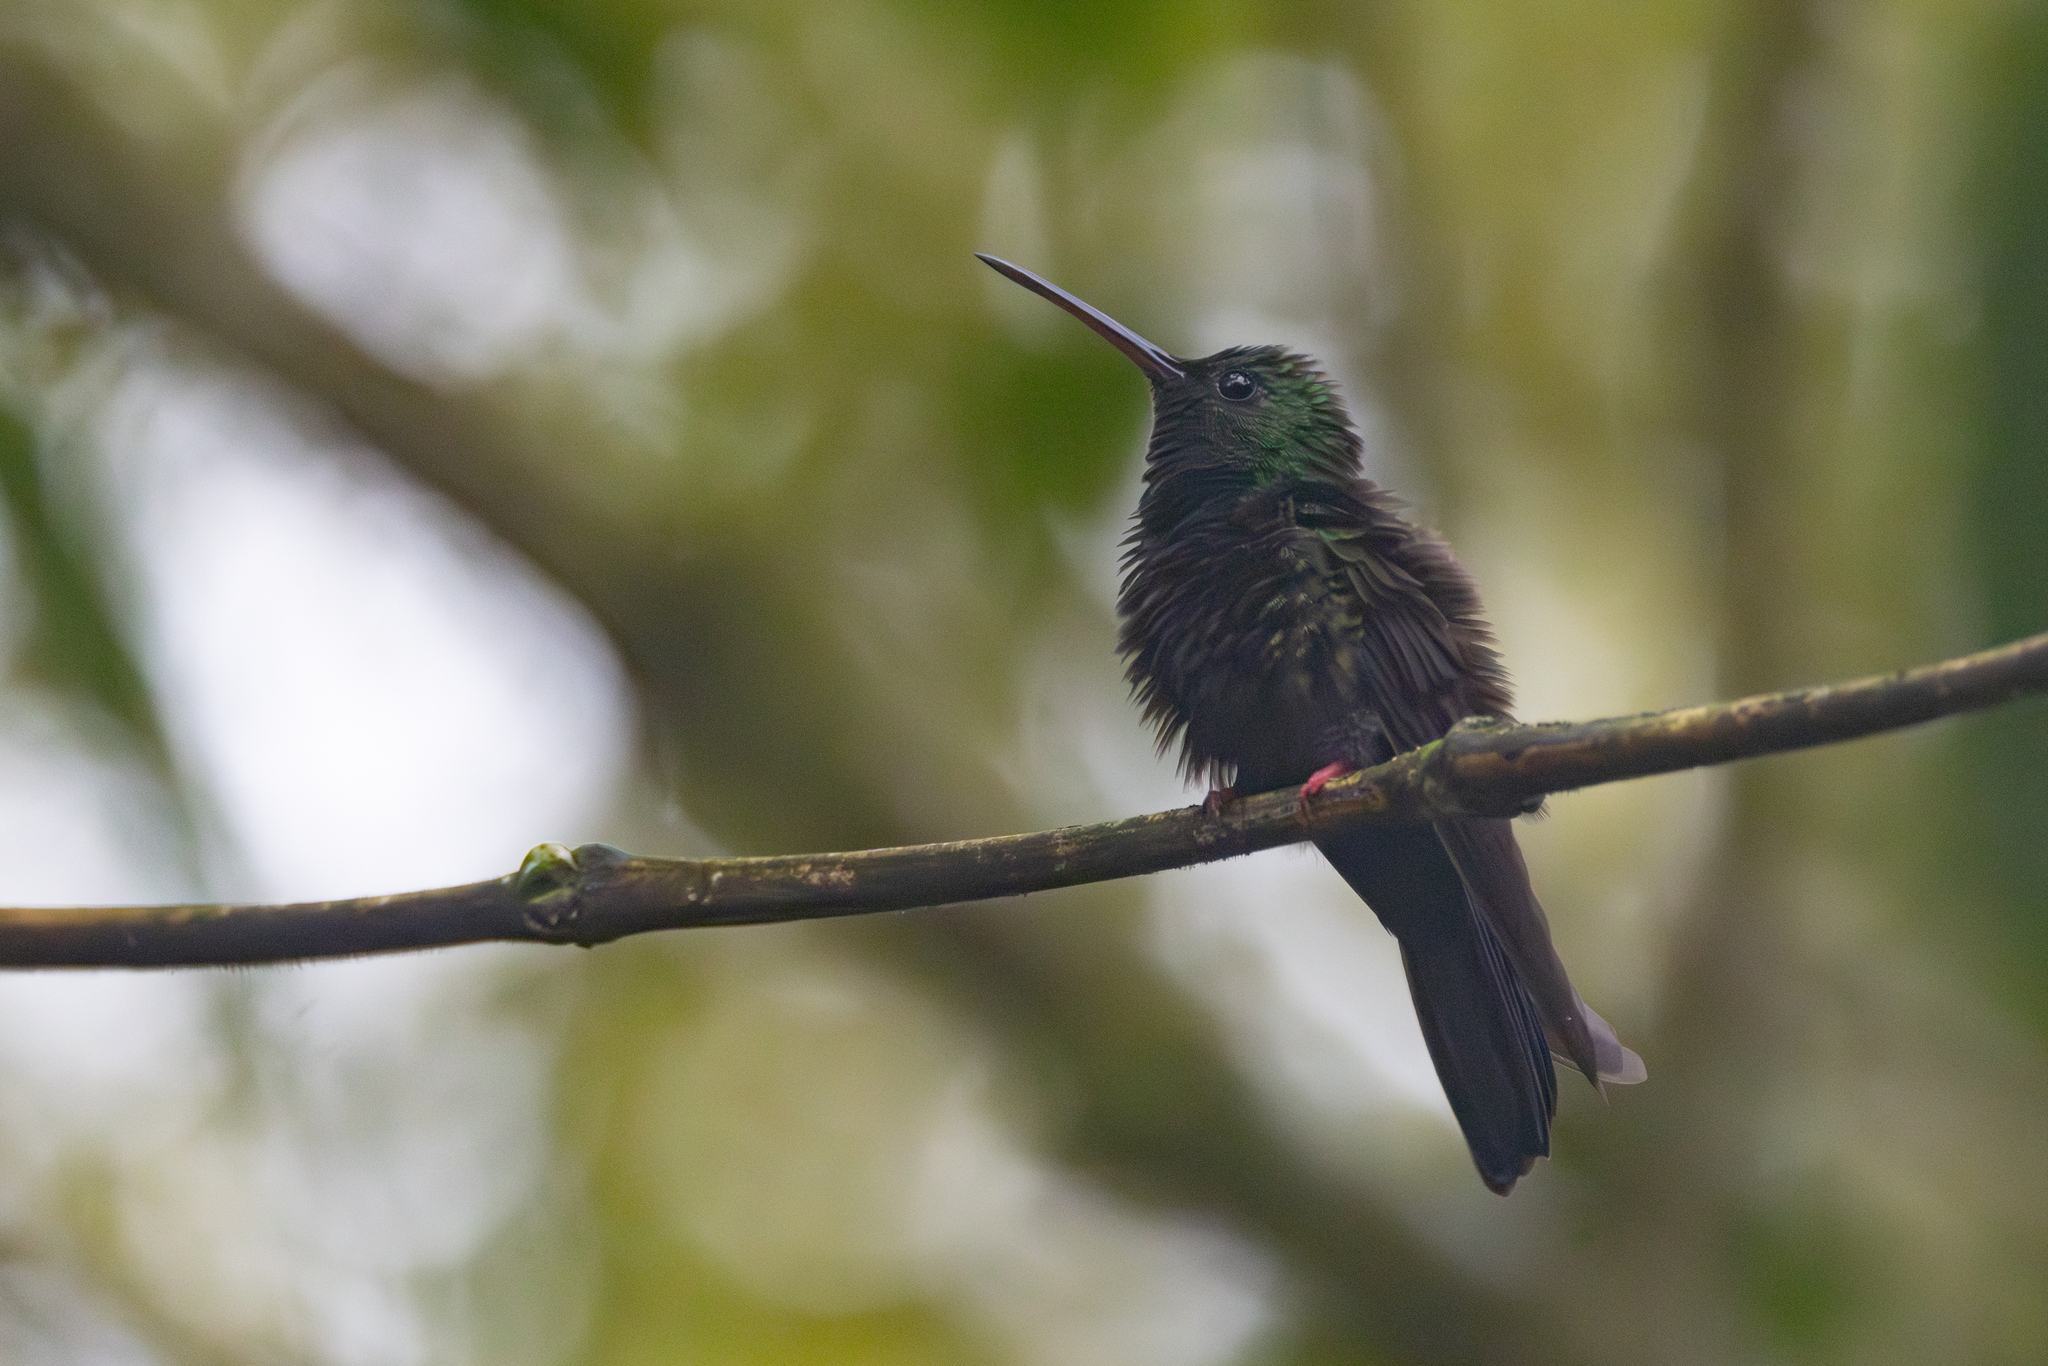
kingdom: Animalia
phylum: Chordata
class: Aves
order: Apodiformes
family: Trochilidae
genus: Chalybura
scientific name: Chalybura urochrysia
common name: Bronze-tailed plumeleteer
